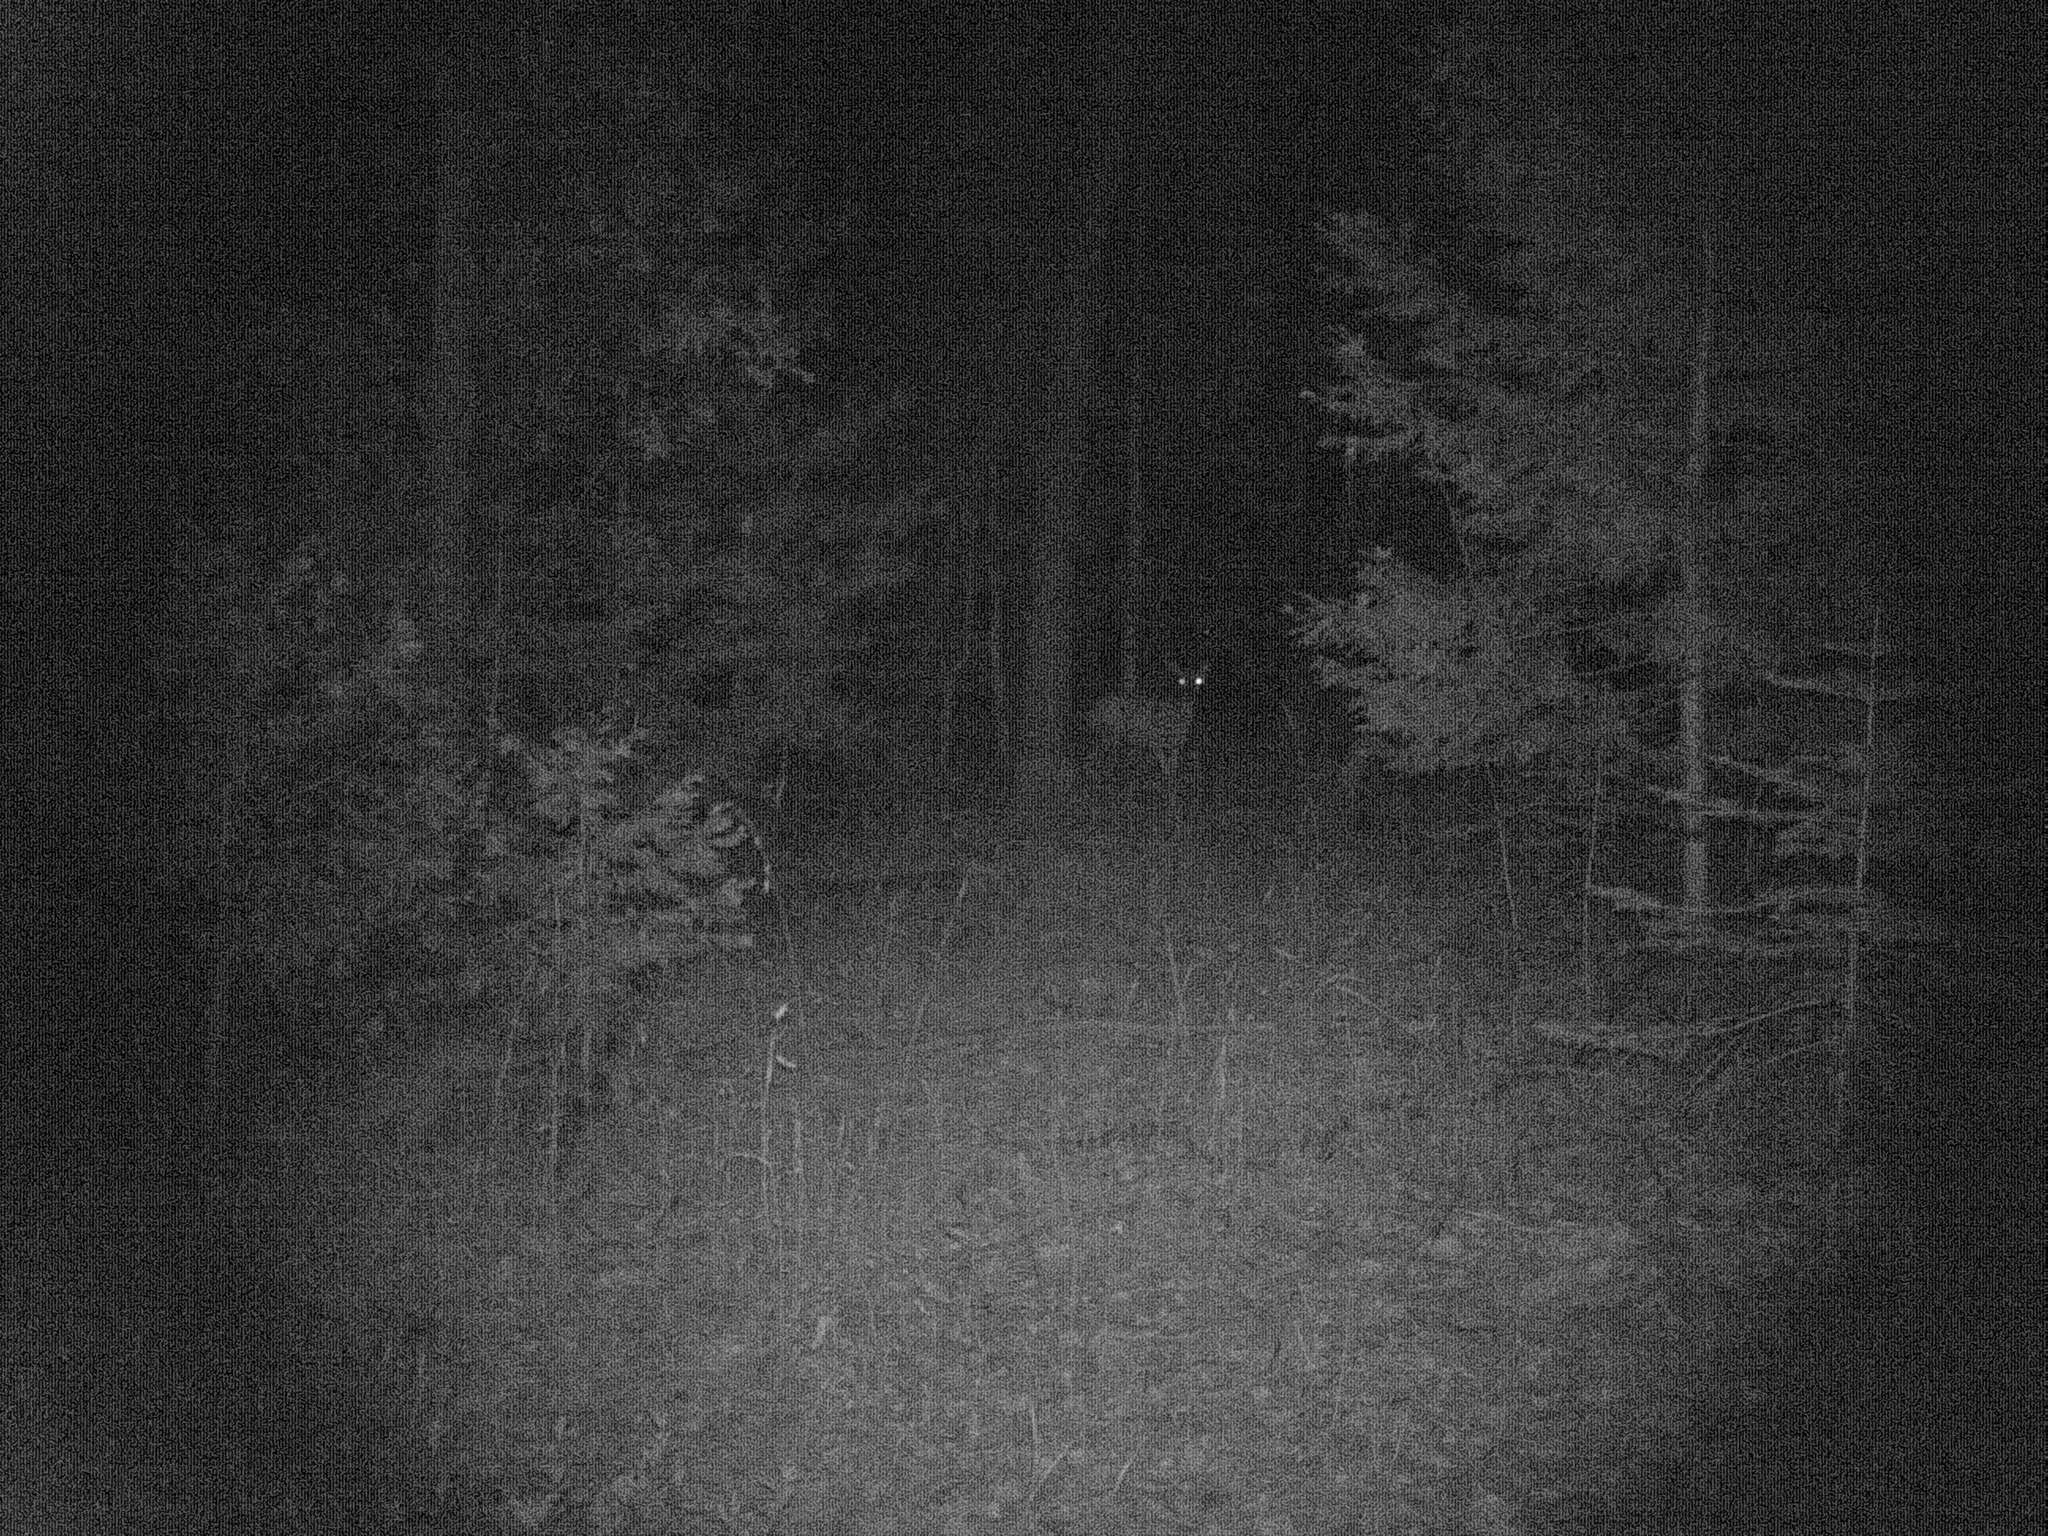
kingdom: Animalia
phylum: Chordata
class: Mammalia
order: Carnivora
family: Canidae
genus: Urocyon
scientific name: Urocyon cinereoargenteus
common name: Gray fox
